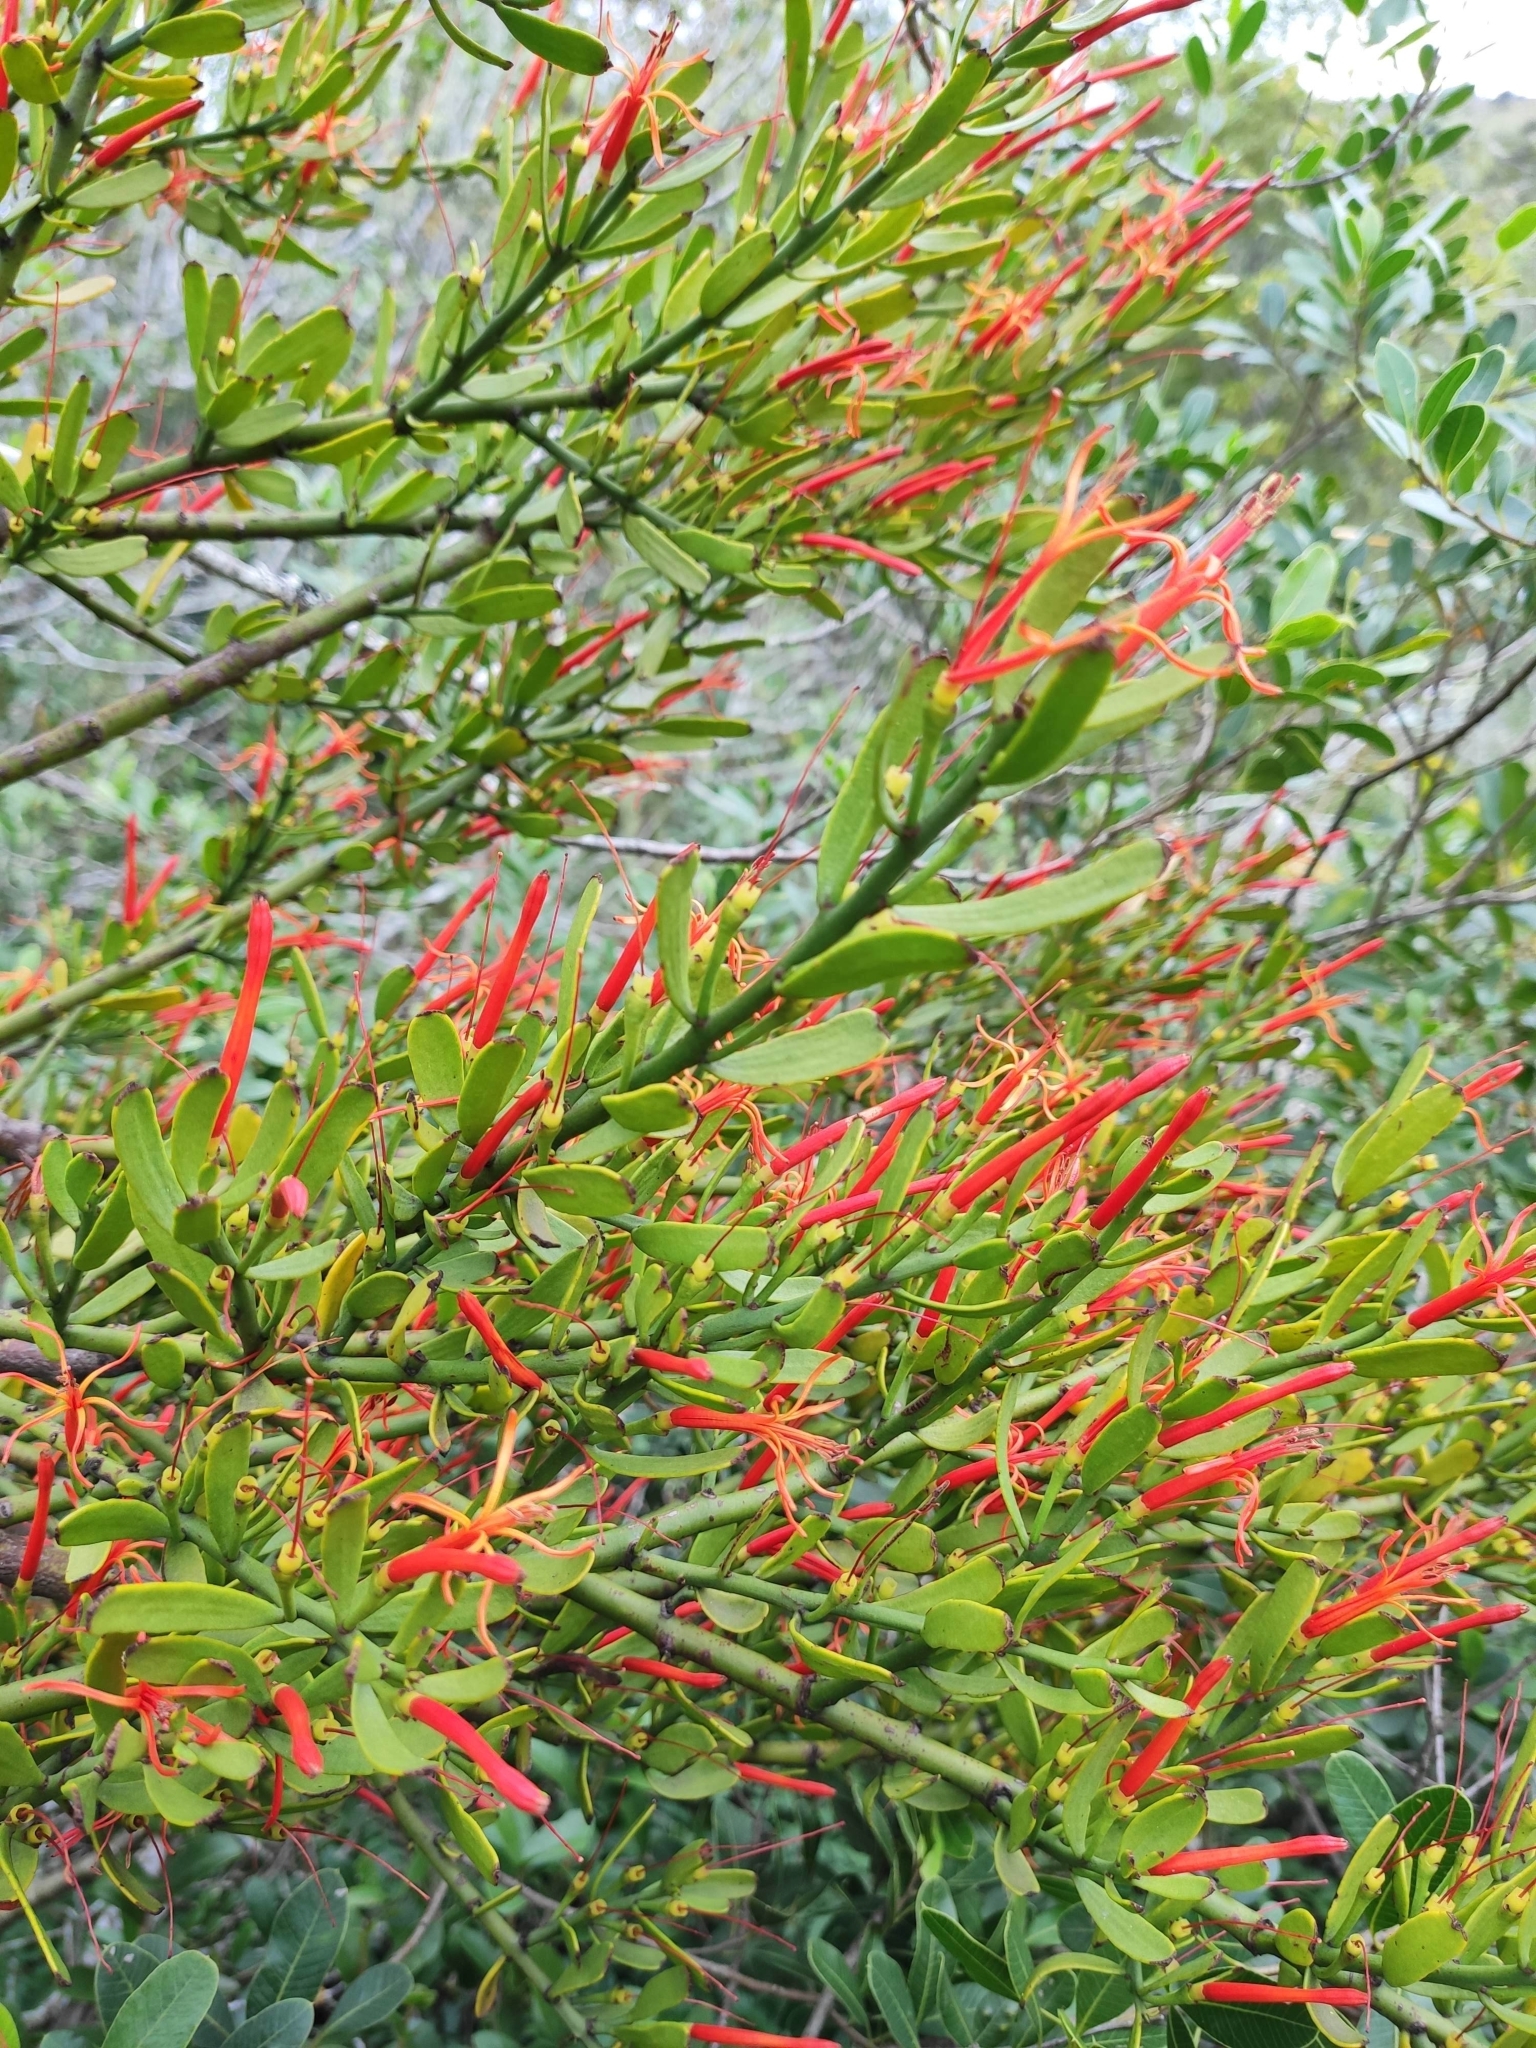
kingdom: Plantae
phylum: Tracheophyta
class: Magnoliopsida
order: Santalales
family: Loranthaceae
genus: Ligaria
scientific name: Ligaria cuneifolia
